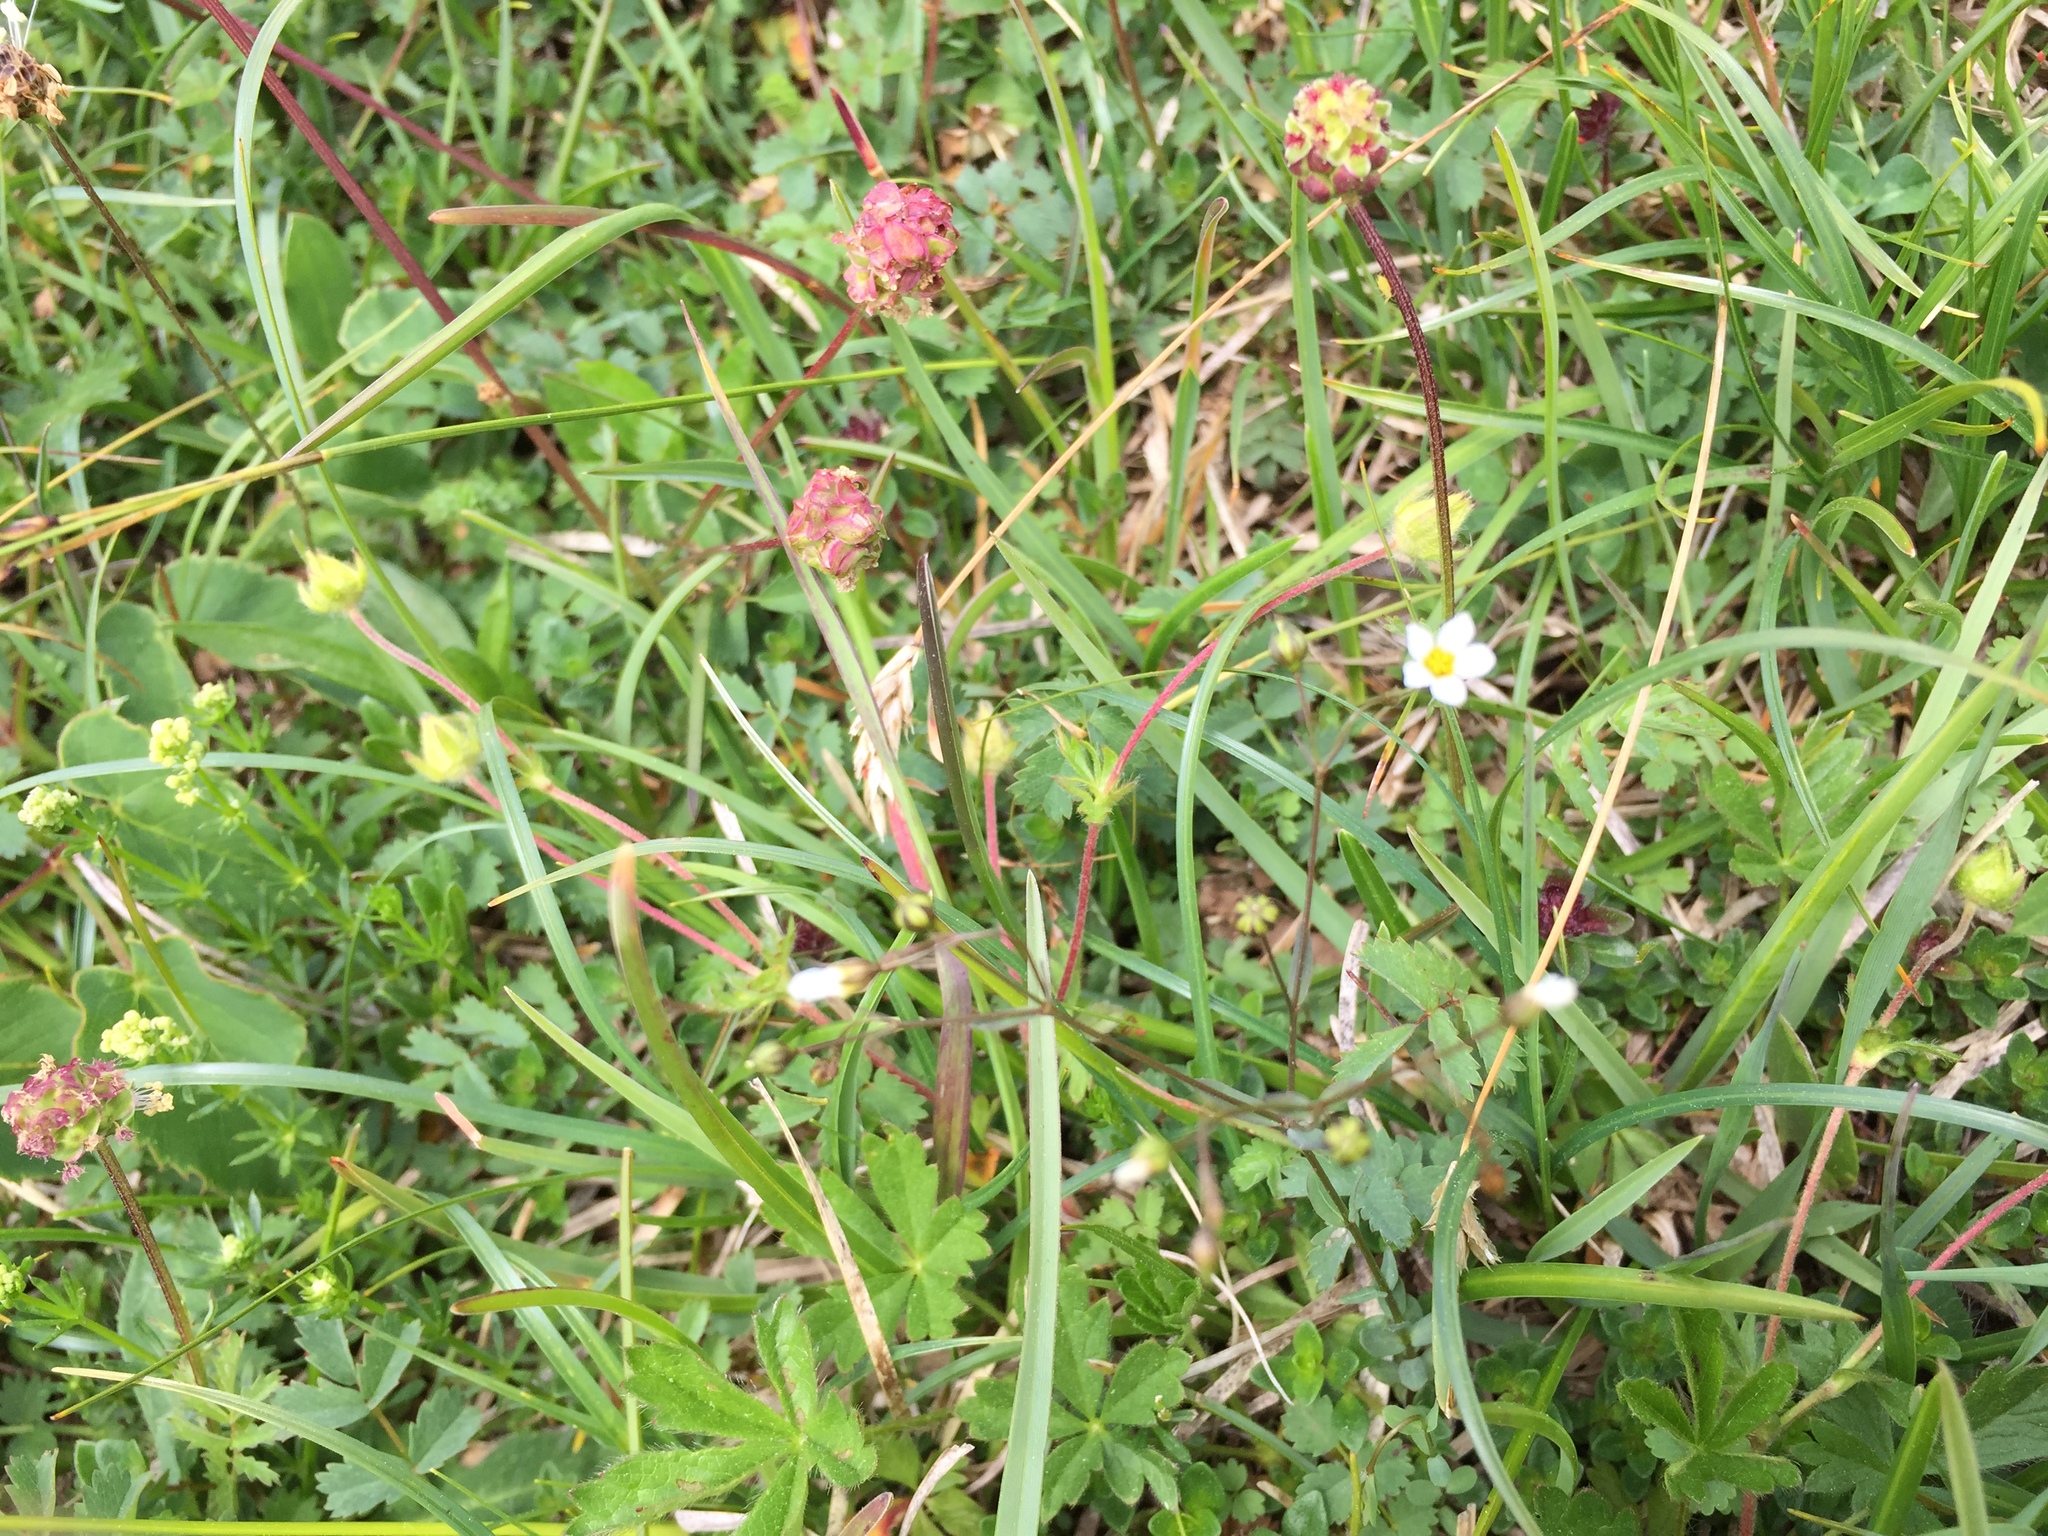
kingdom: Plantae
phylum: Tracheophyta
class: Magnoliopsida
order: Rosales
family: Rosaceae
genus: Poterium
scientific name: Poterium sanguisorba
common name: Salad burnet
